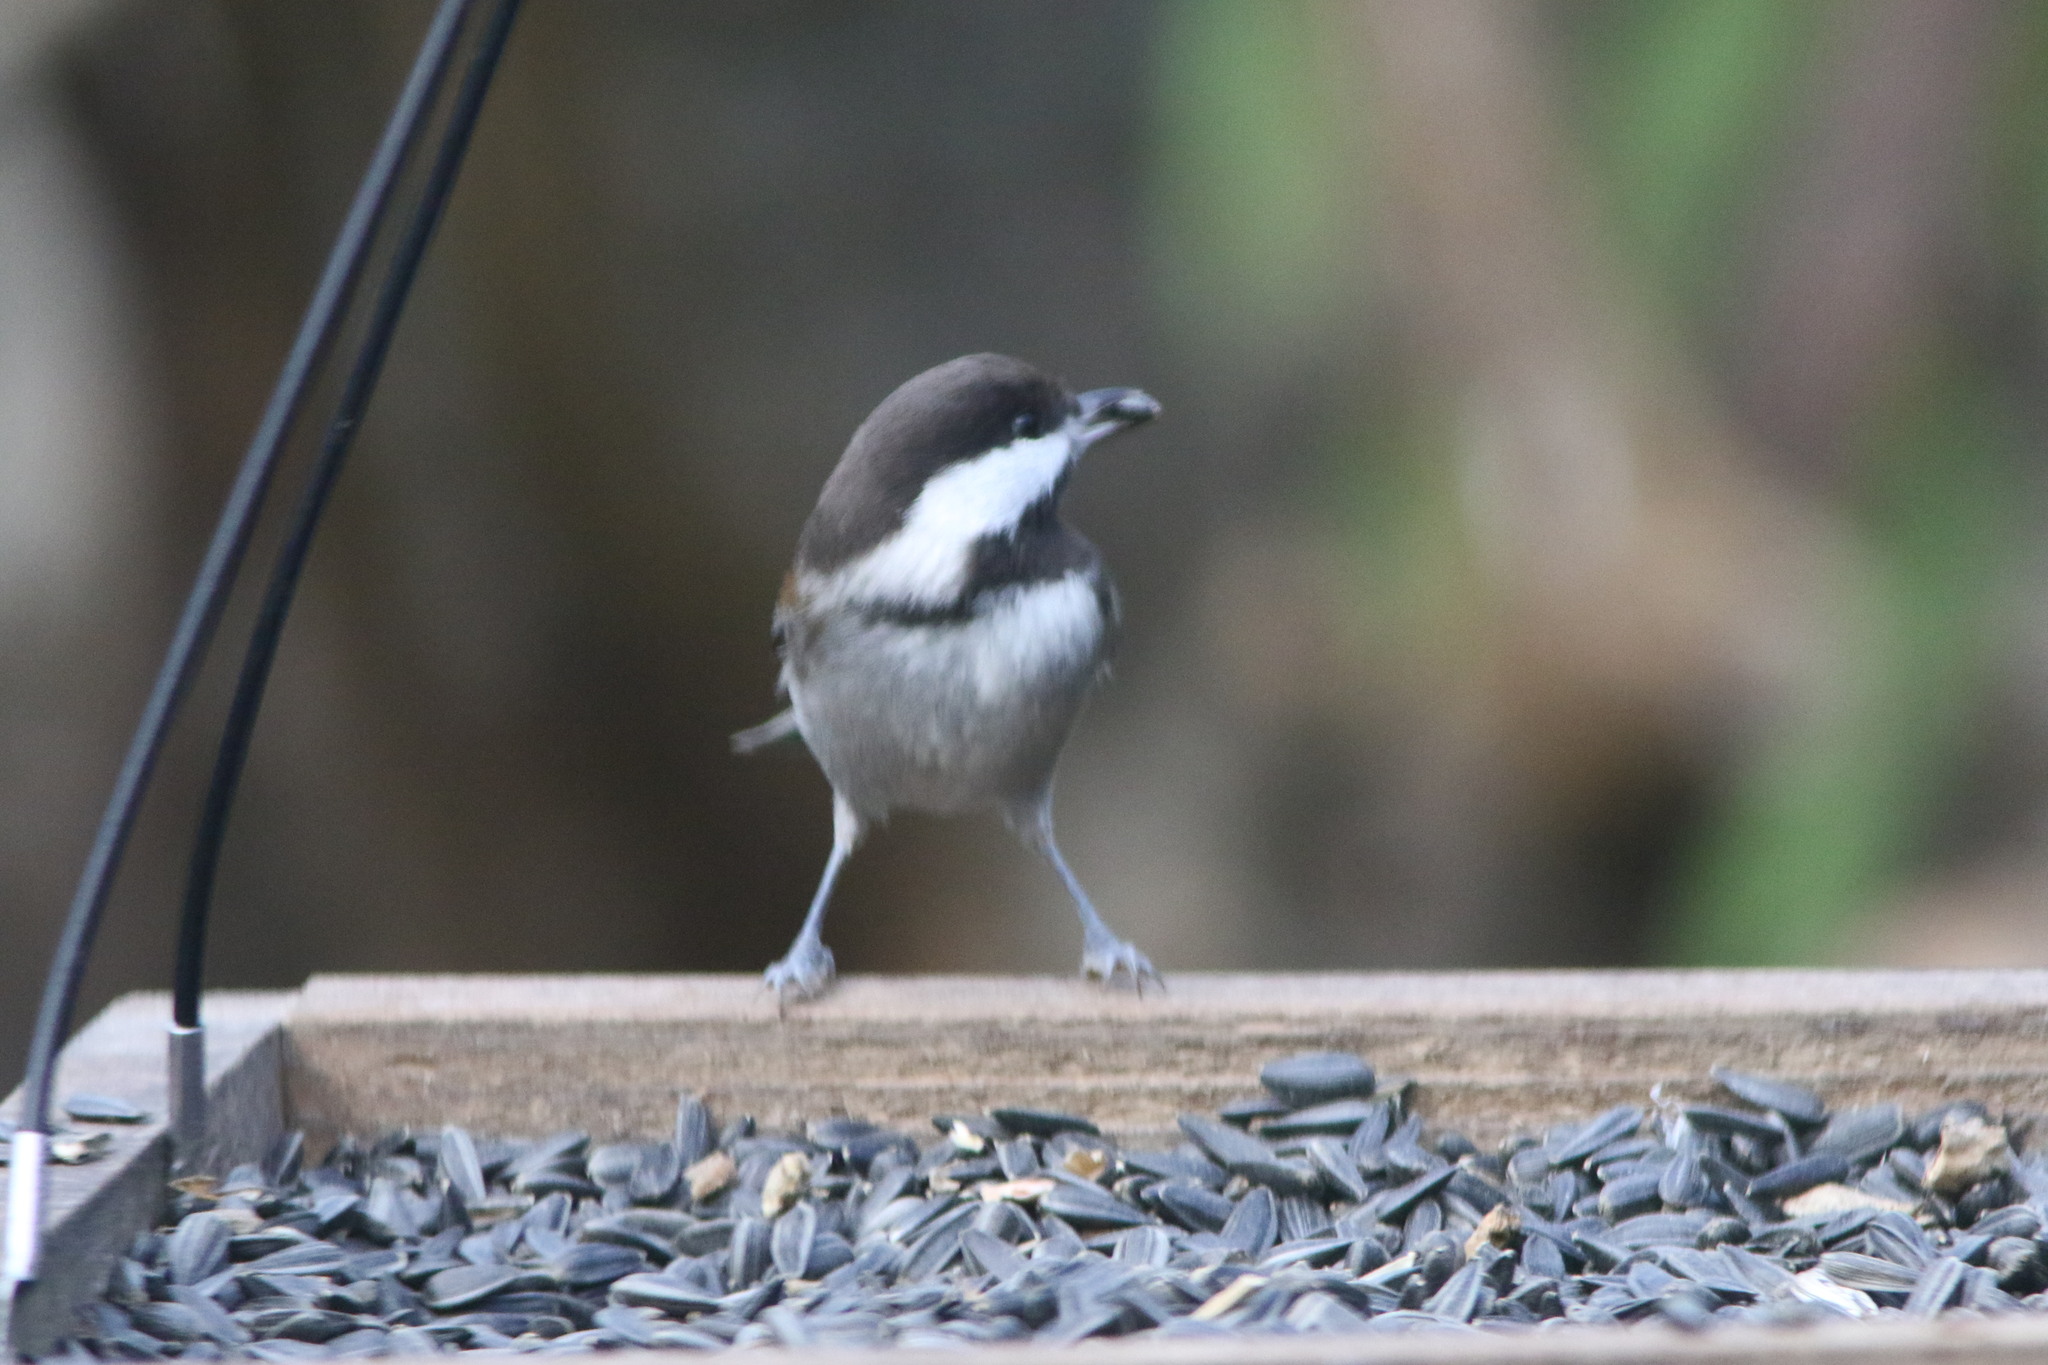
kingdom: Animalia
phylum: Chordata
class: Aves
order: Passeriformes
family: Paridae
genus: Poecile
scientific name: Poecile rufescens
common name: Chestnut-backed chickadee
